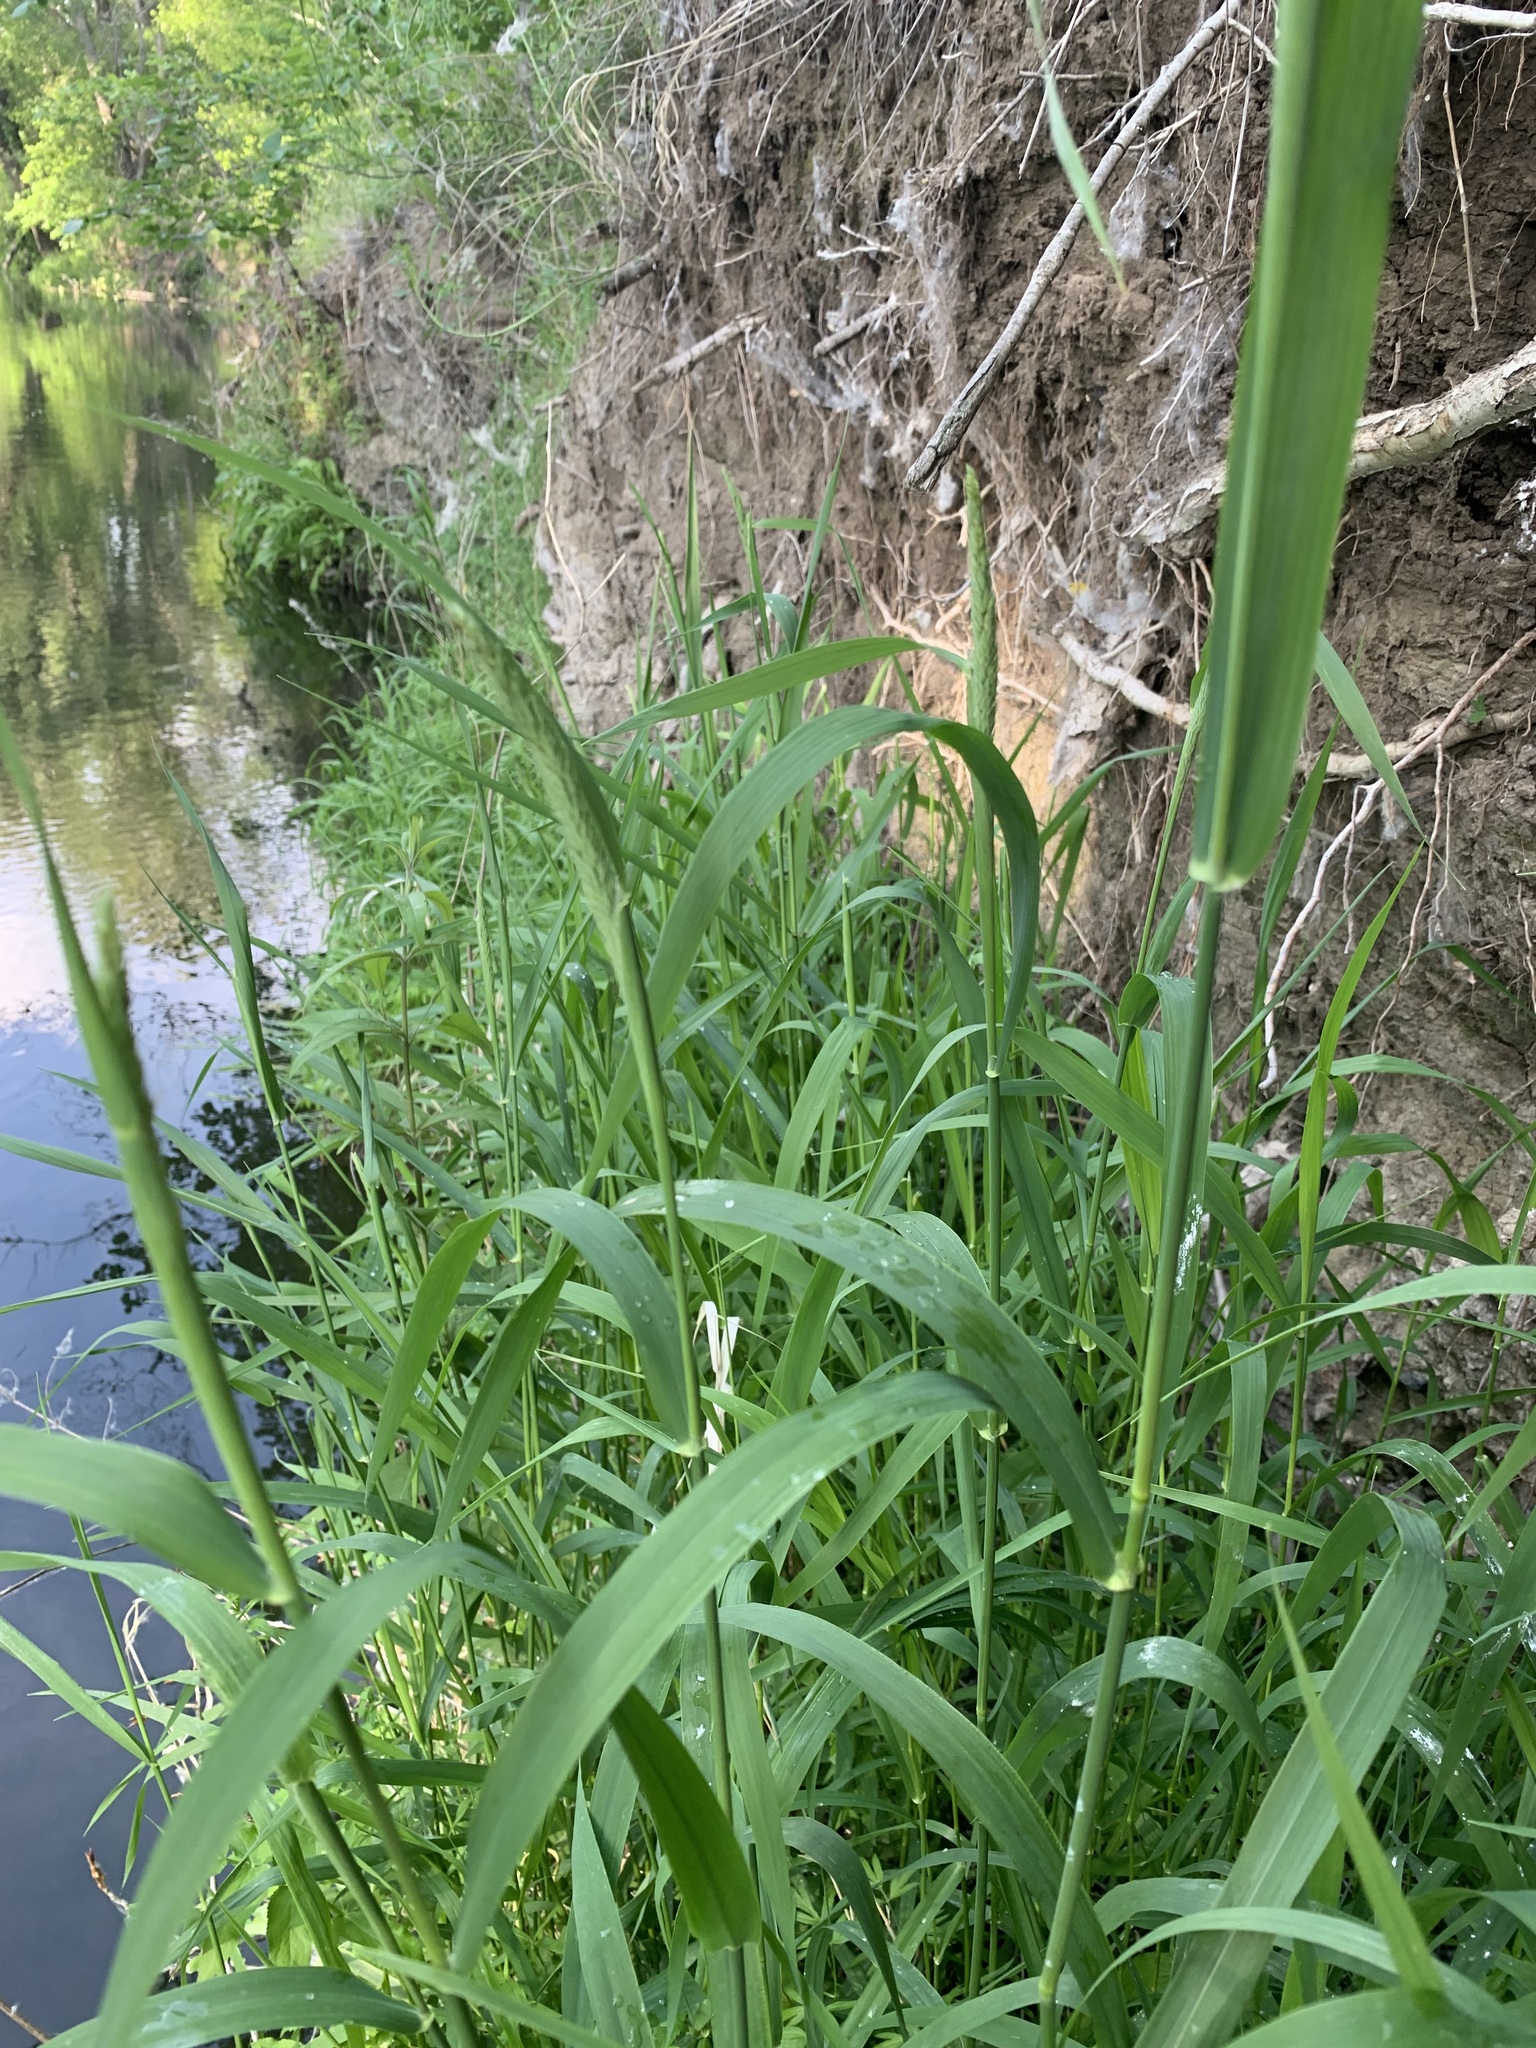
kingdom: Plantae
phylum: Tracheophyta
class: Liliopsida
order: Poales
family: Poaceae
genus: Phalaris
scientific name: Phalaris arundinacea
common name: Reed canary-grass
